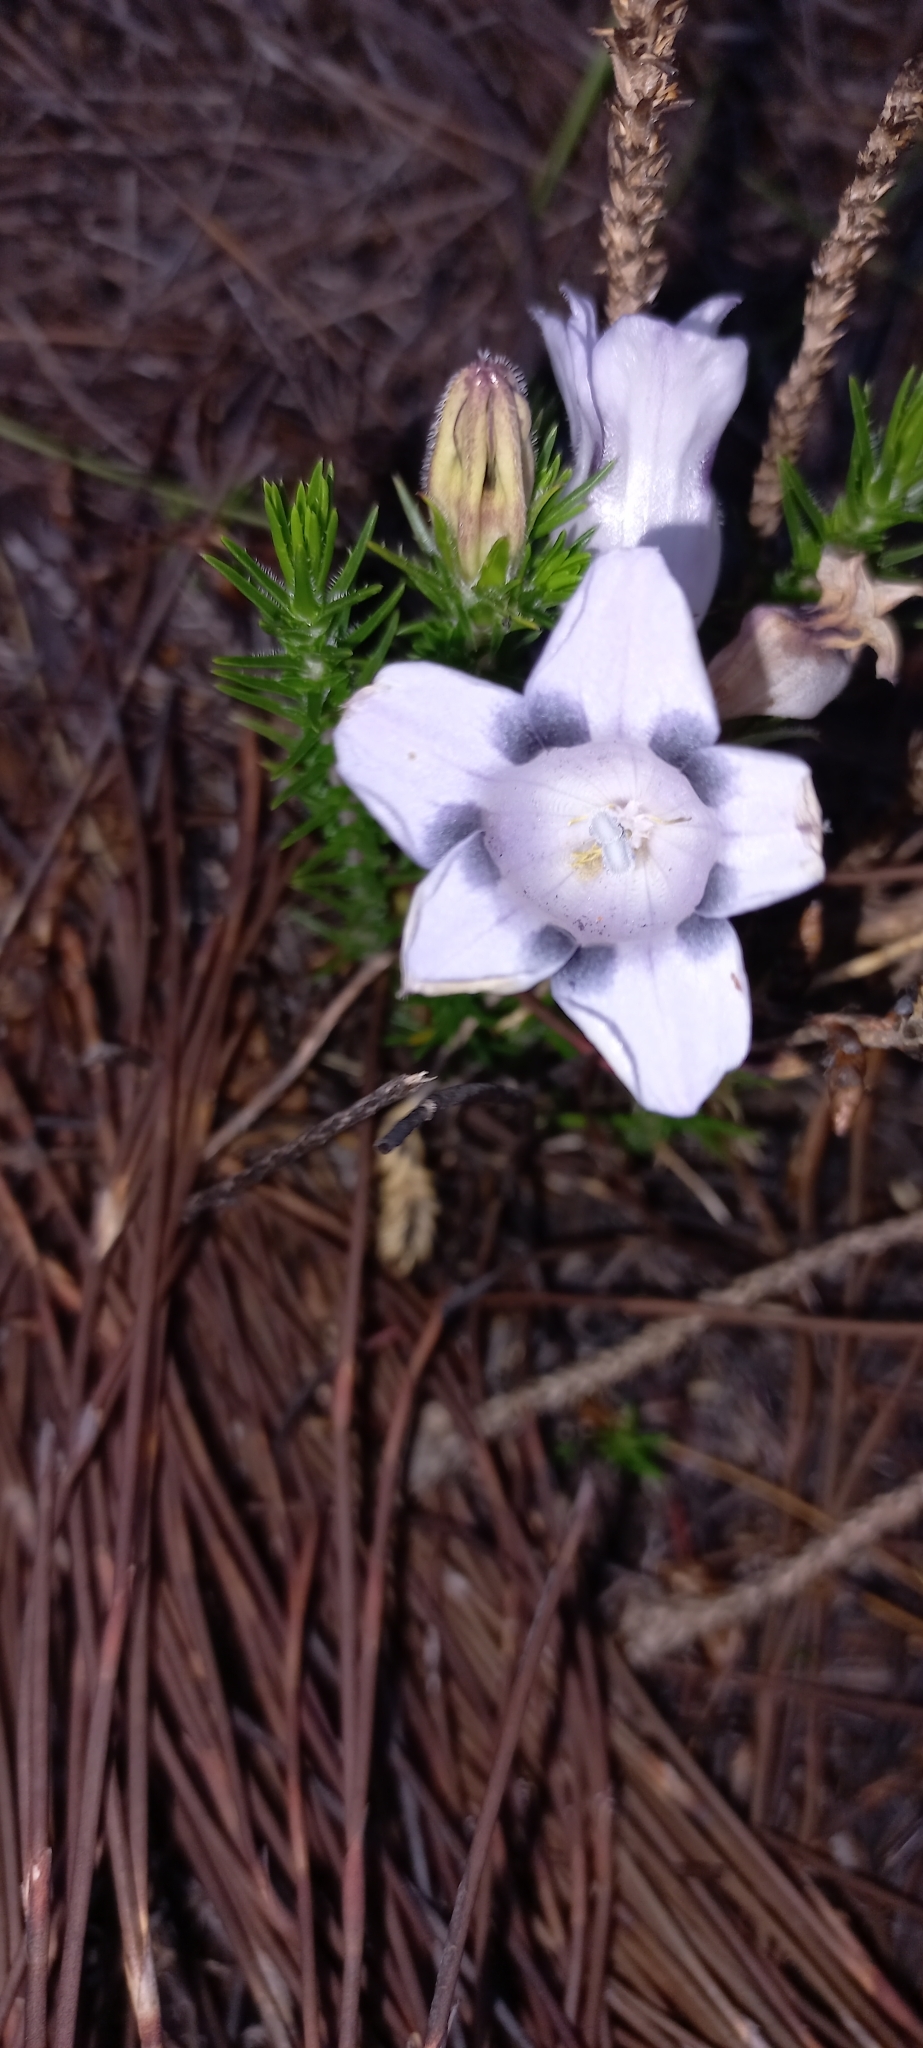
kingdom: Plantae
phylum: Tracheophyta
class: Magnoliopsida
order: Asterales
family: Campanulaceae
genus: Roella
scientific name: Roella maculata
